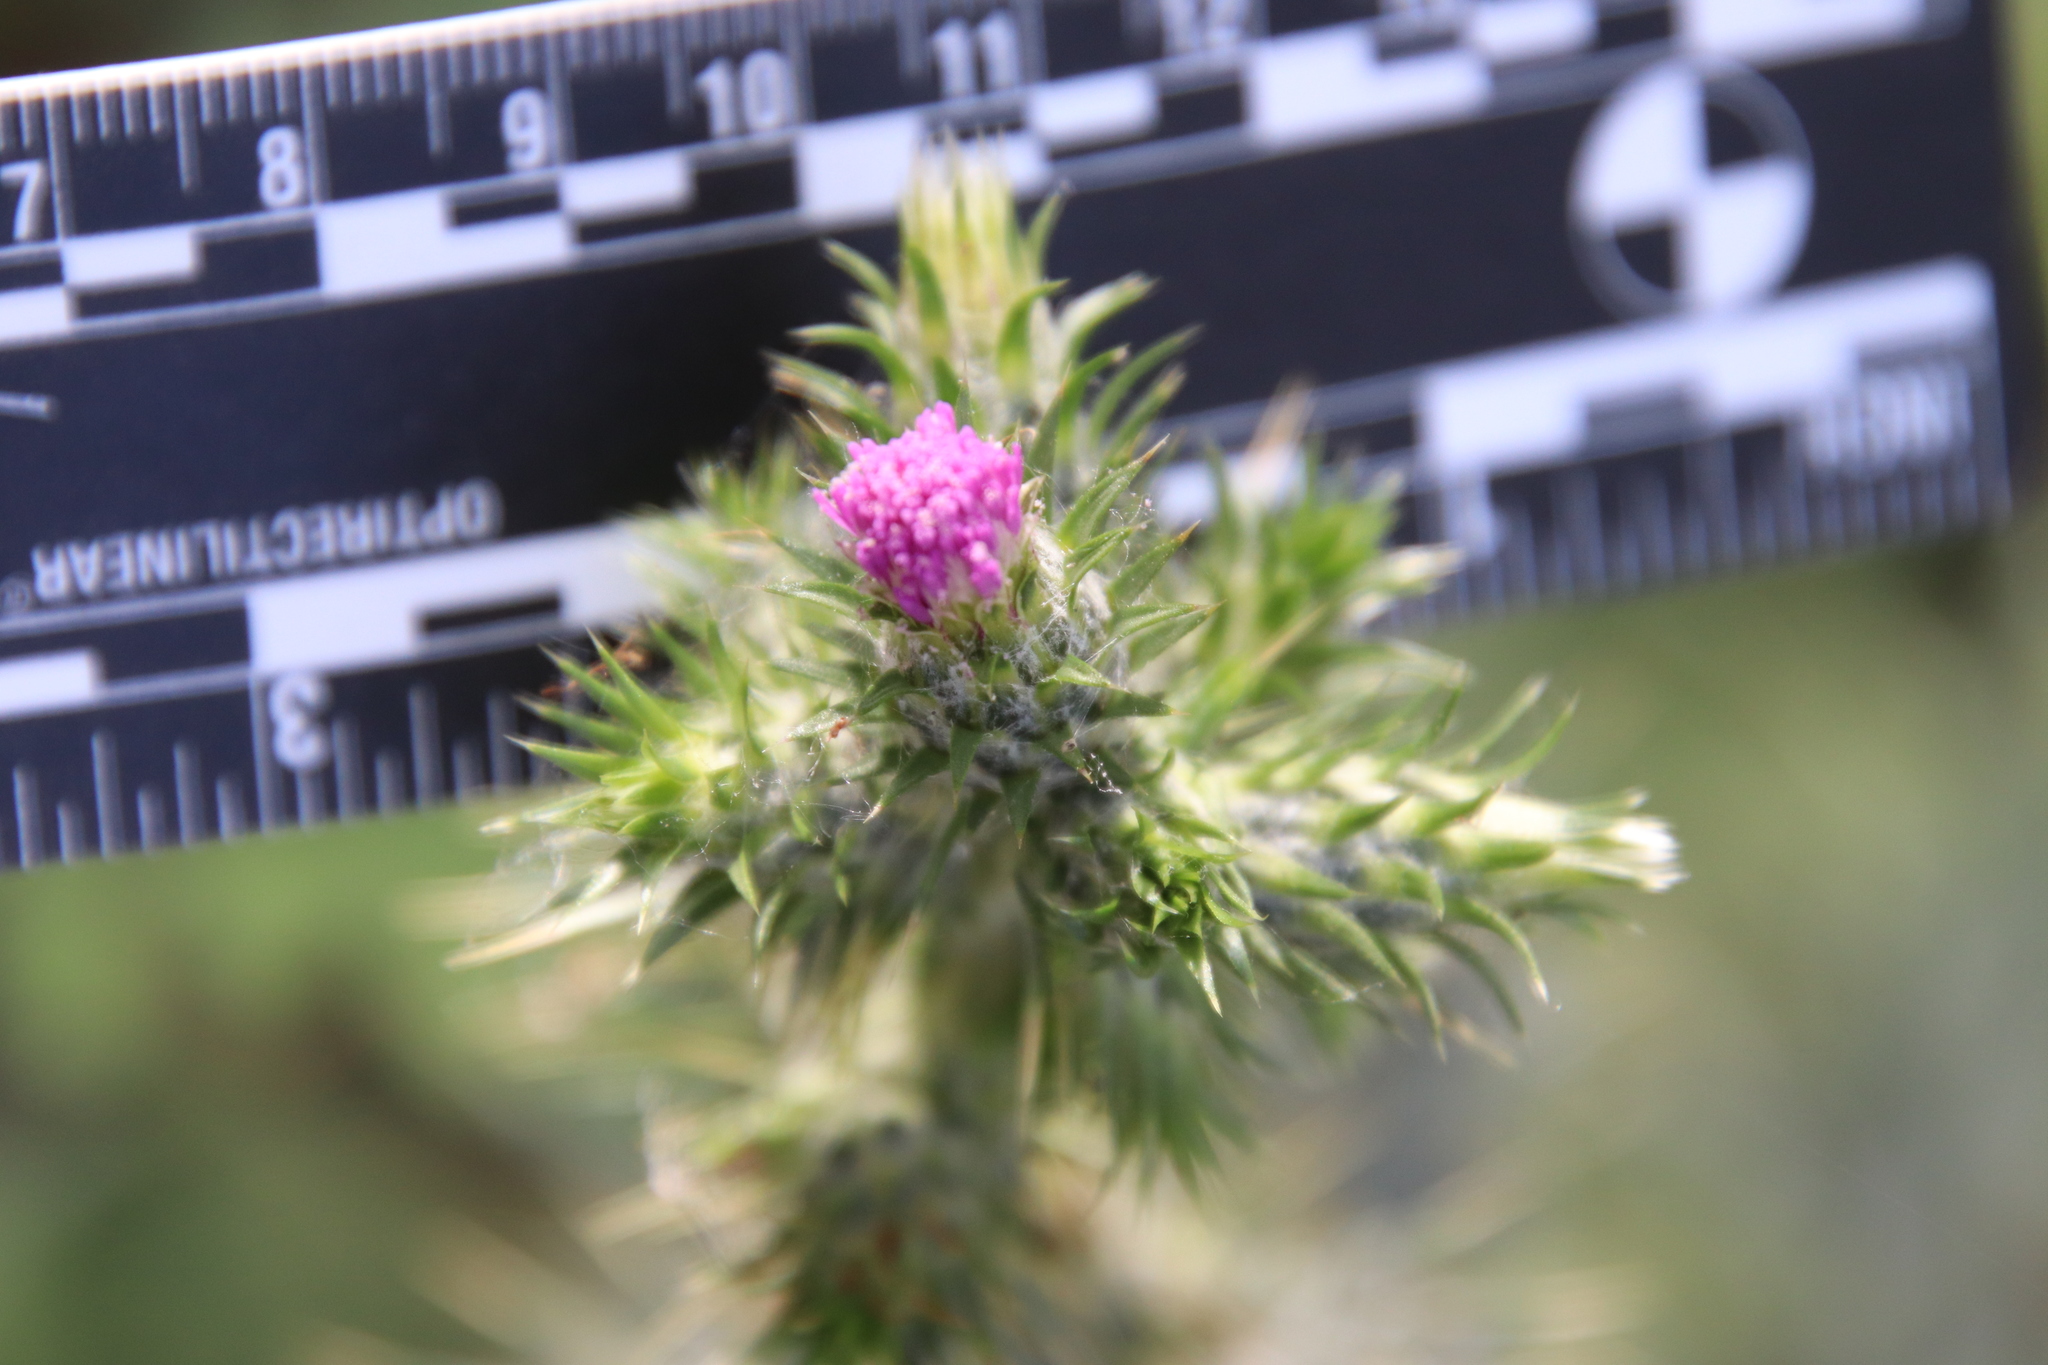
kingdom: Plantae
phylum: Tracheophyta
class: Magnoliopsida
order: Asterales
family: Asteraceae
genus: Carduus
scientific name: Carduus pycnocephalus
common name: Plymouth thistle
